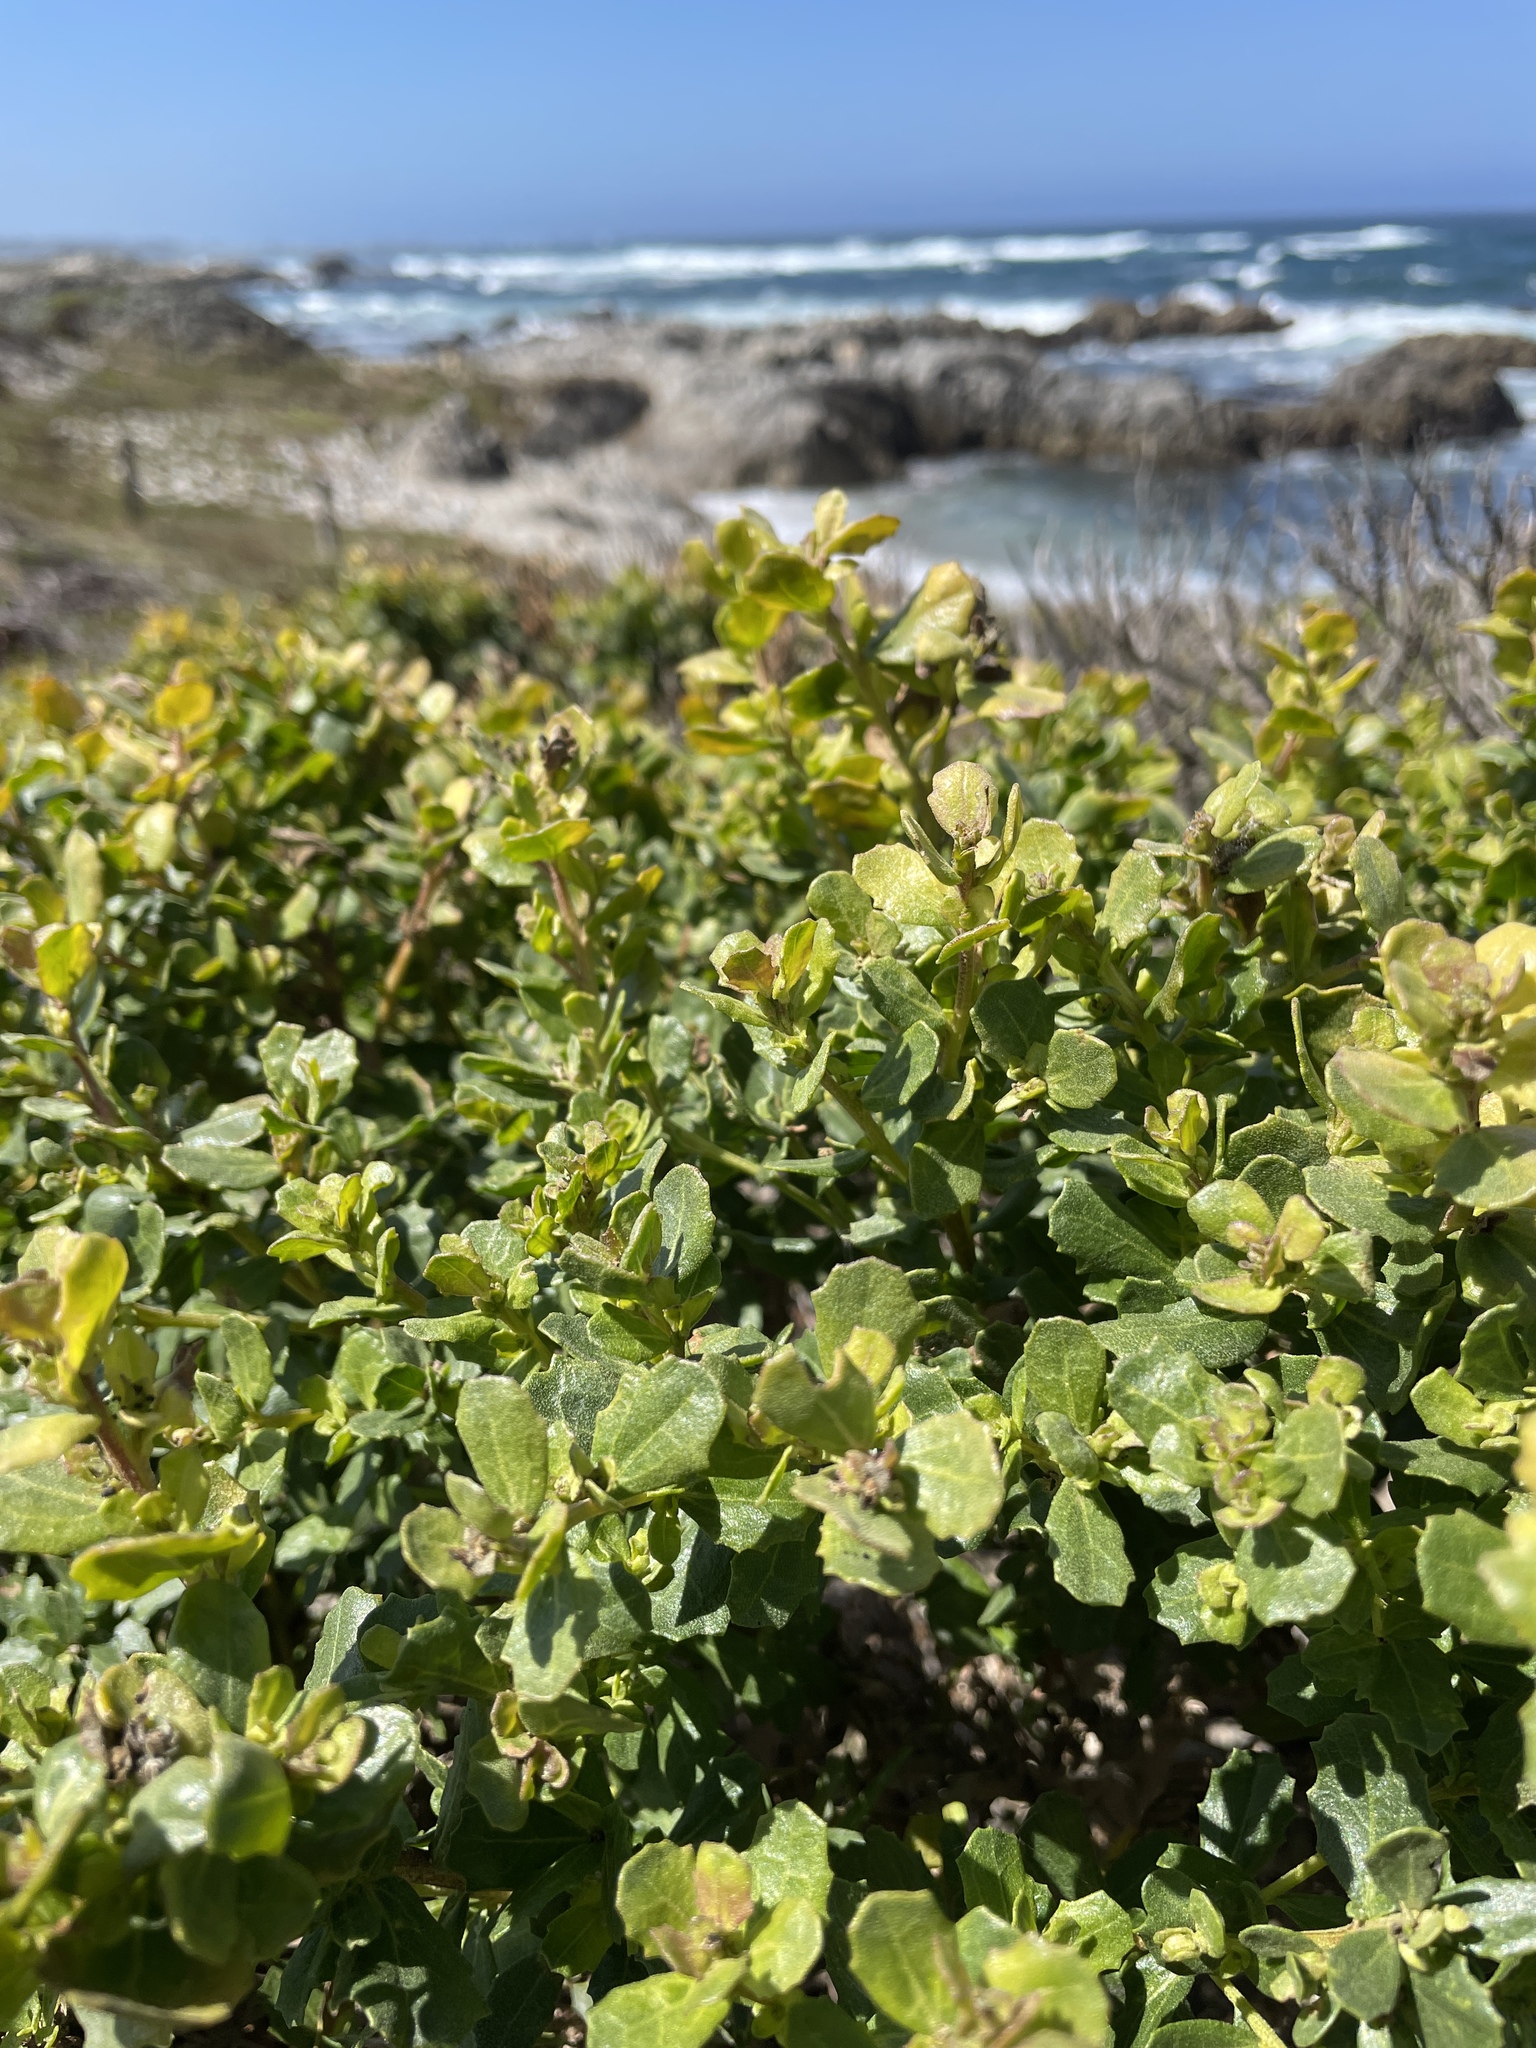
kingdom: Plantae
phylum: Tracheophyta
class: Magnoliopsida
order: Asterales
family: Asteraceae
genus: Baccharis
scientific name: Baccharis pilularis
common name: Coyotebrush
